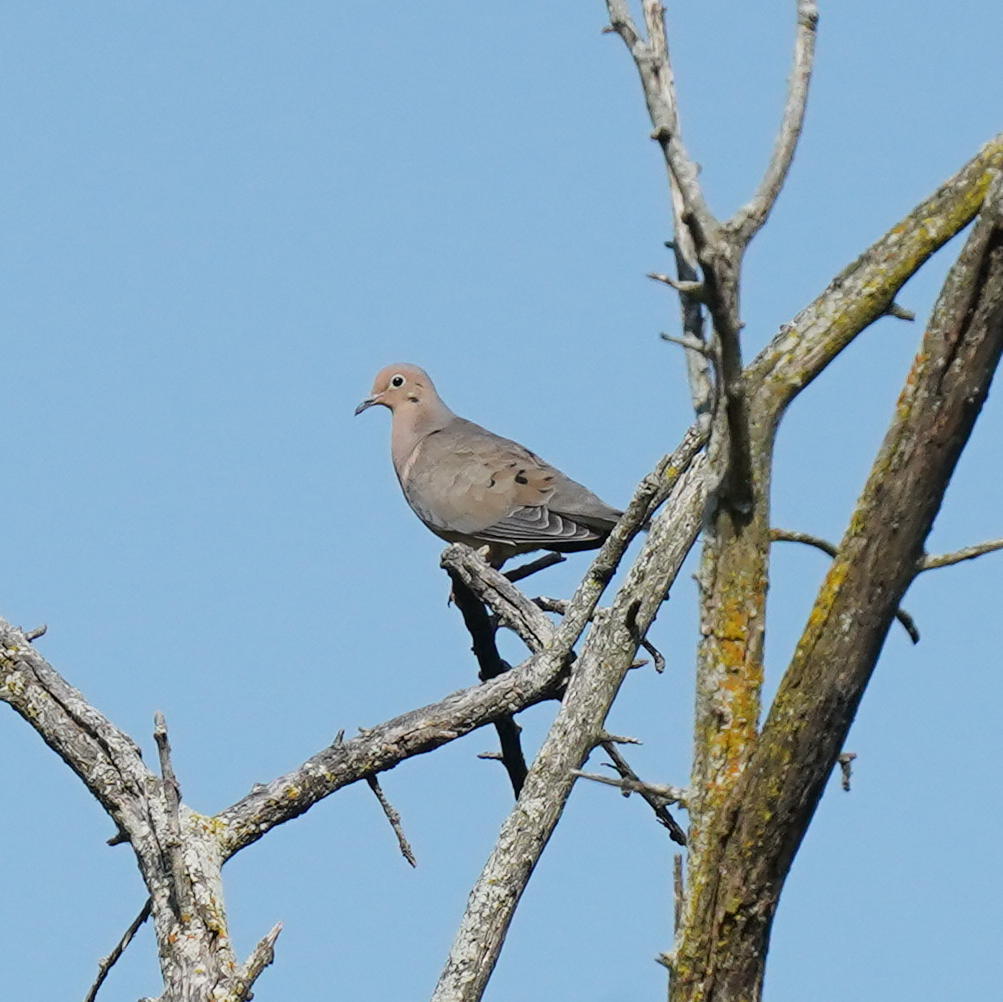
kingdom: Animalia
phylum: Chordata
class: Aves
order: Columbiformes
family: Columbidae
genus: Zenaida
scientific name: Zenaida macroura
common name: Mourning dove
